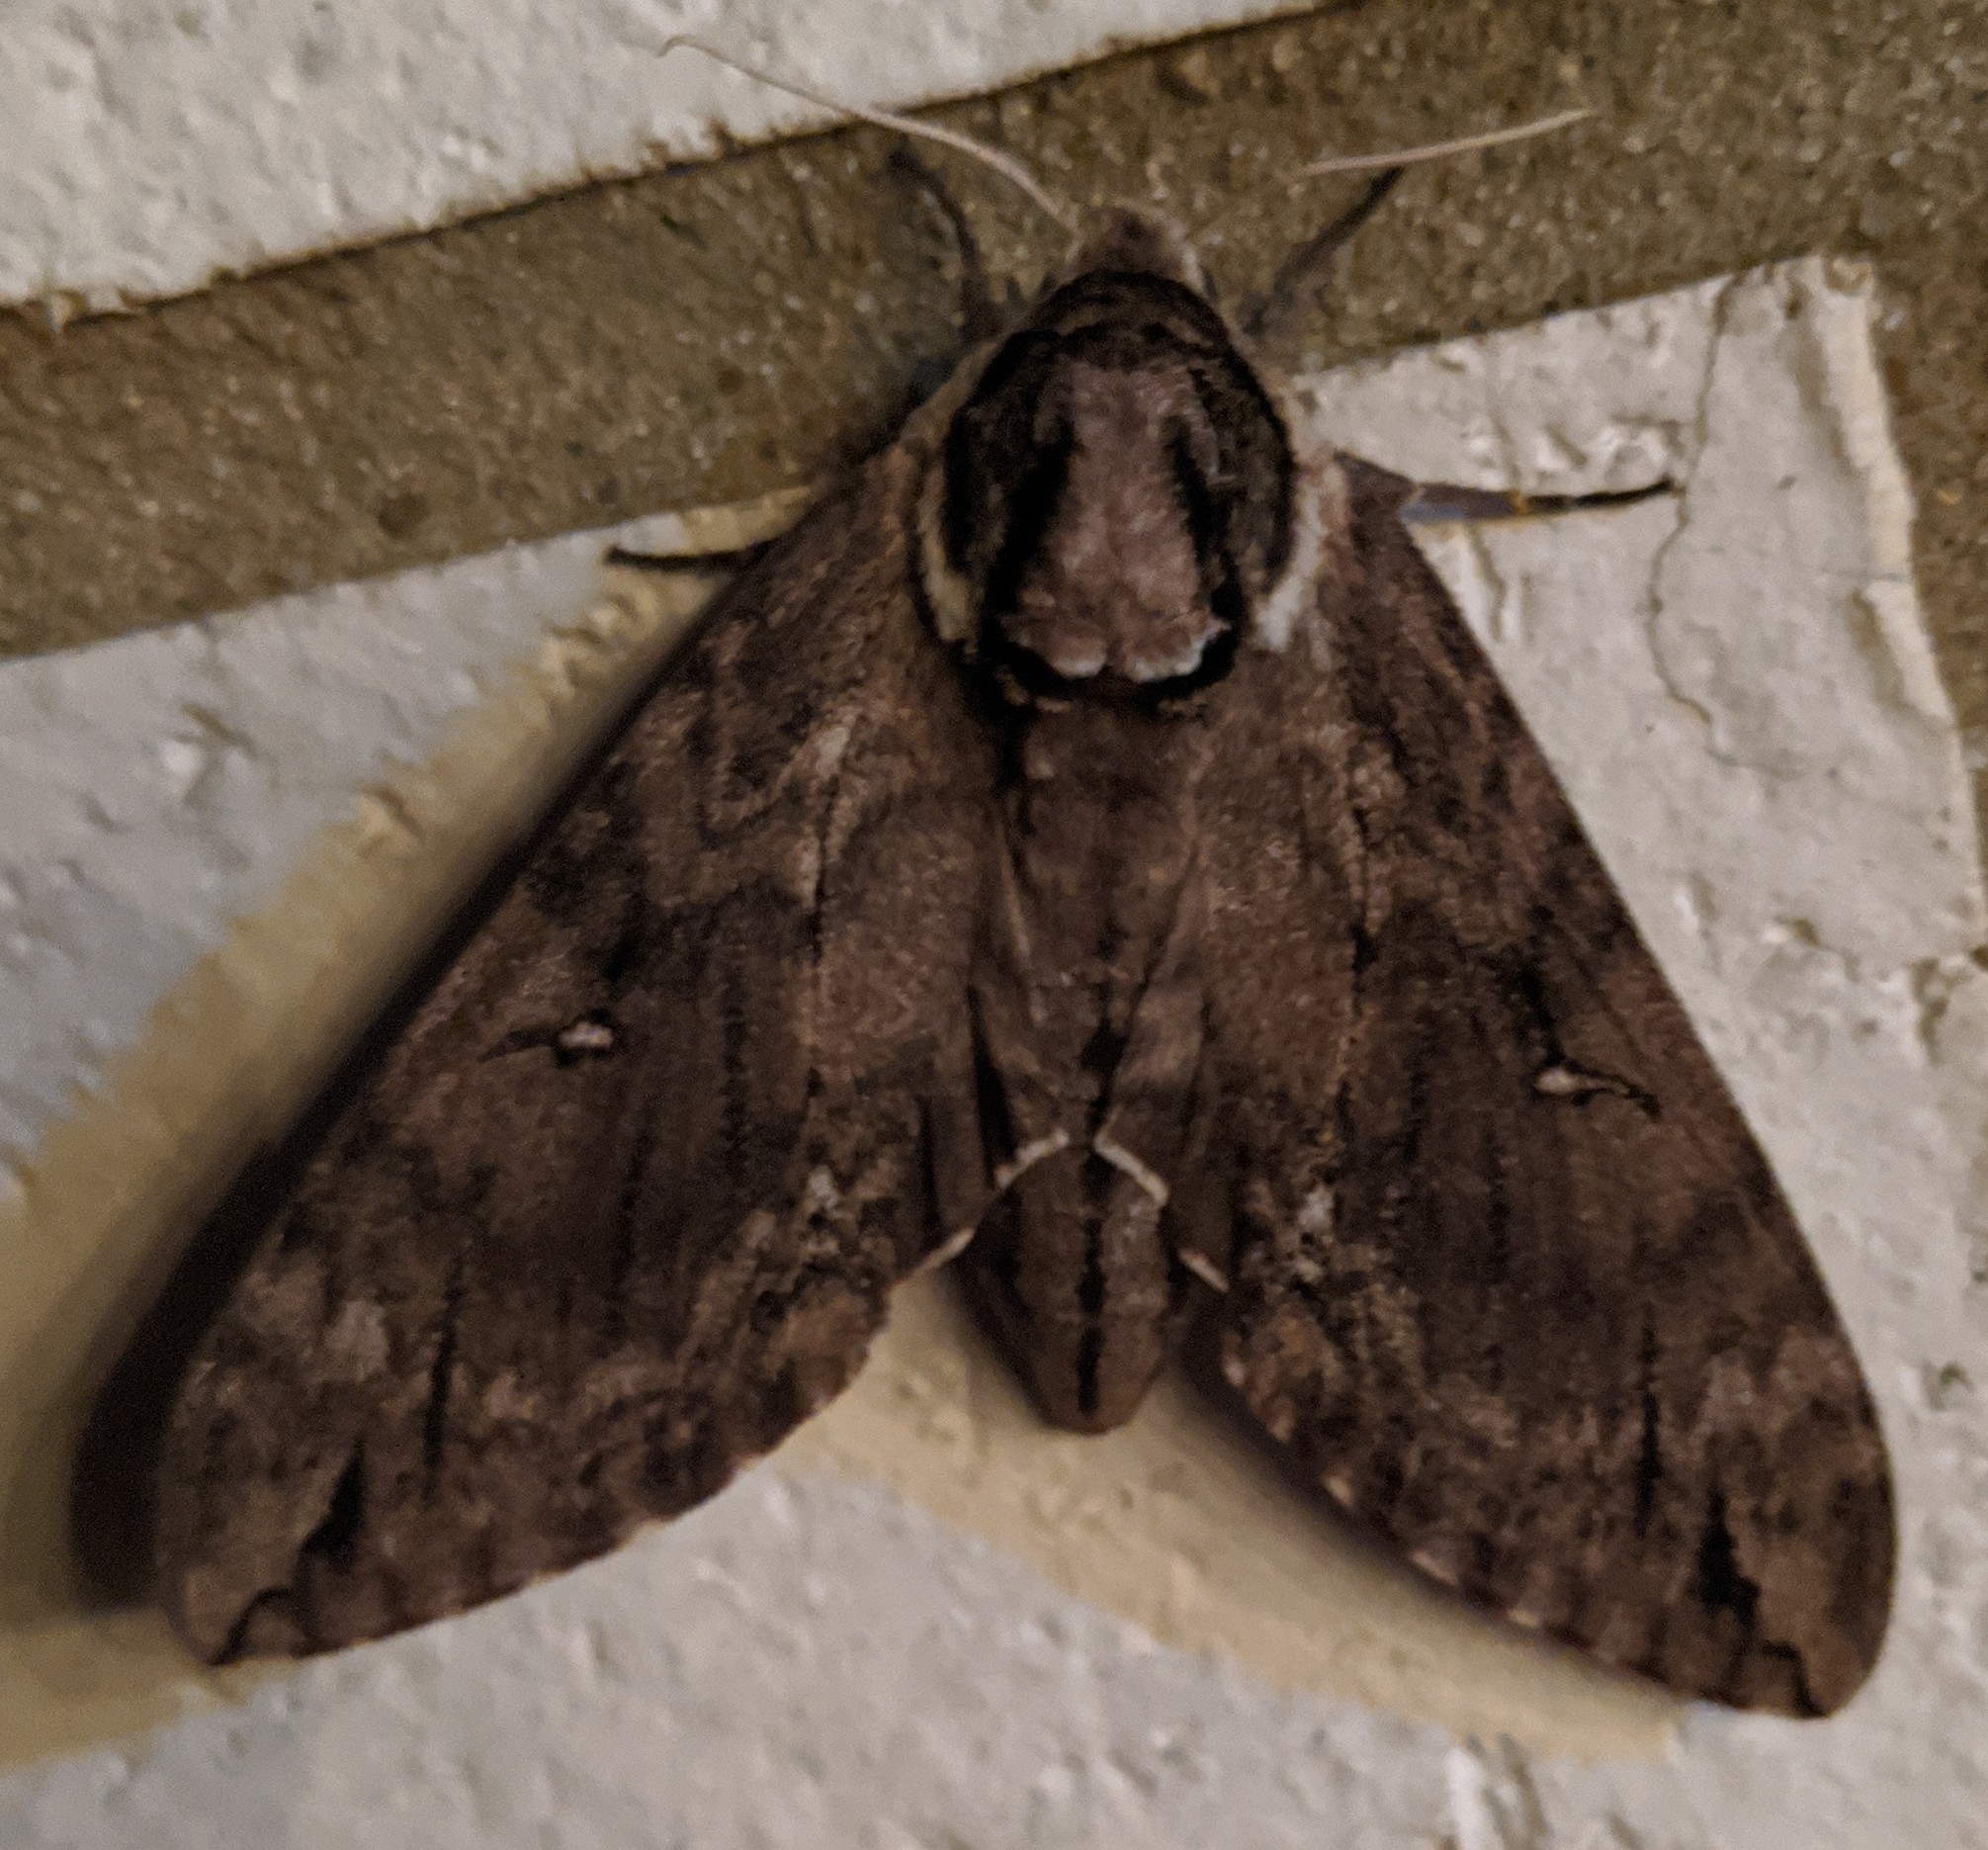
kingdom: Animalia
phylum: Arthropoda
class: Insecta
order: Lepidoptera
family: Sphingidae
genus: Ceratomia
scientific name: Ceratomia catalpae
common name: Catalpa hornworm
